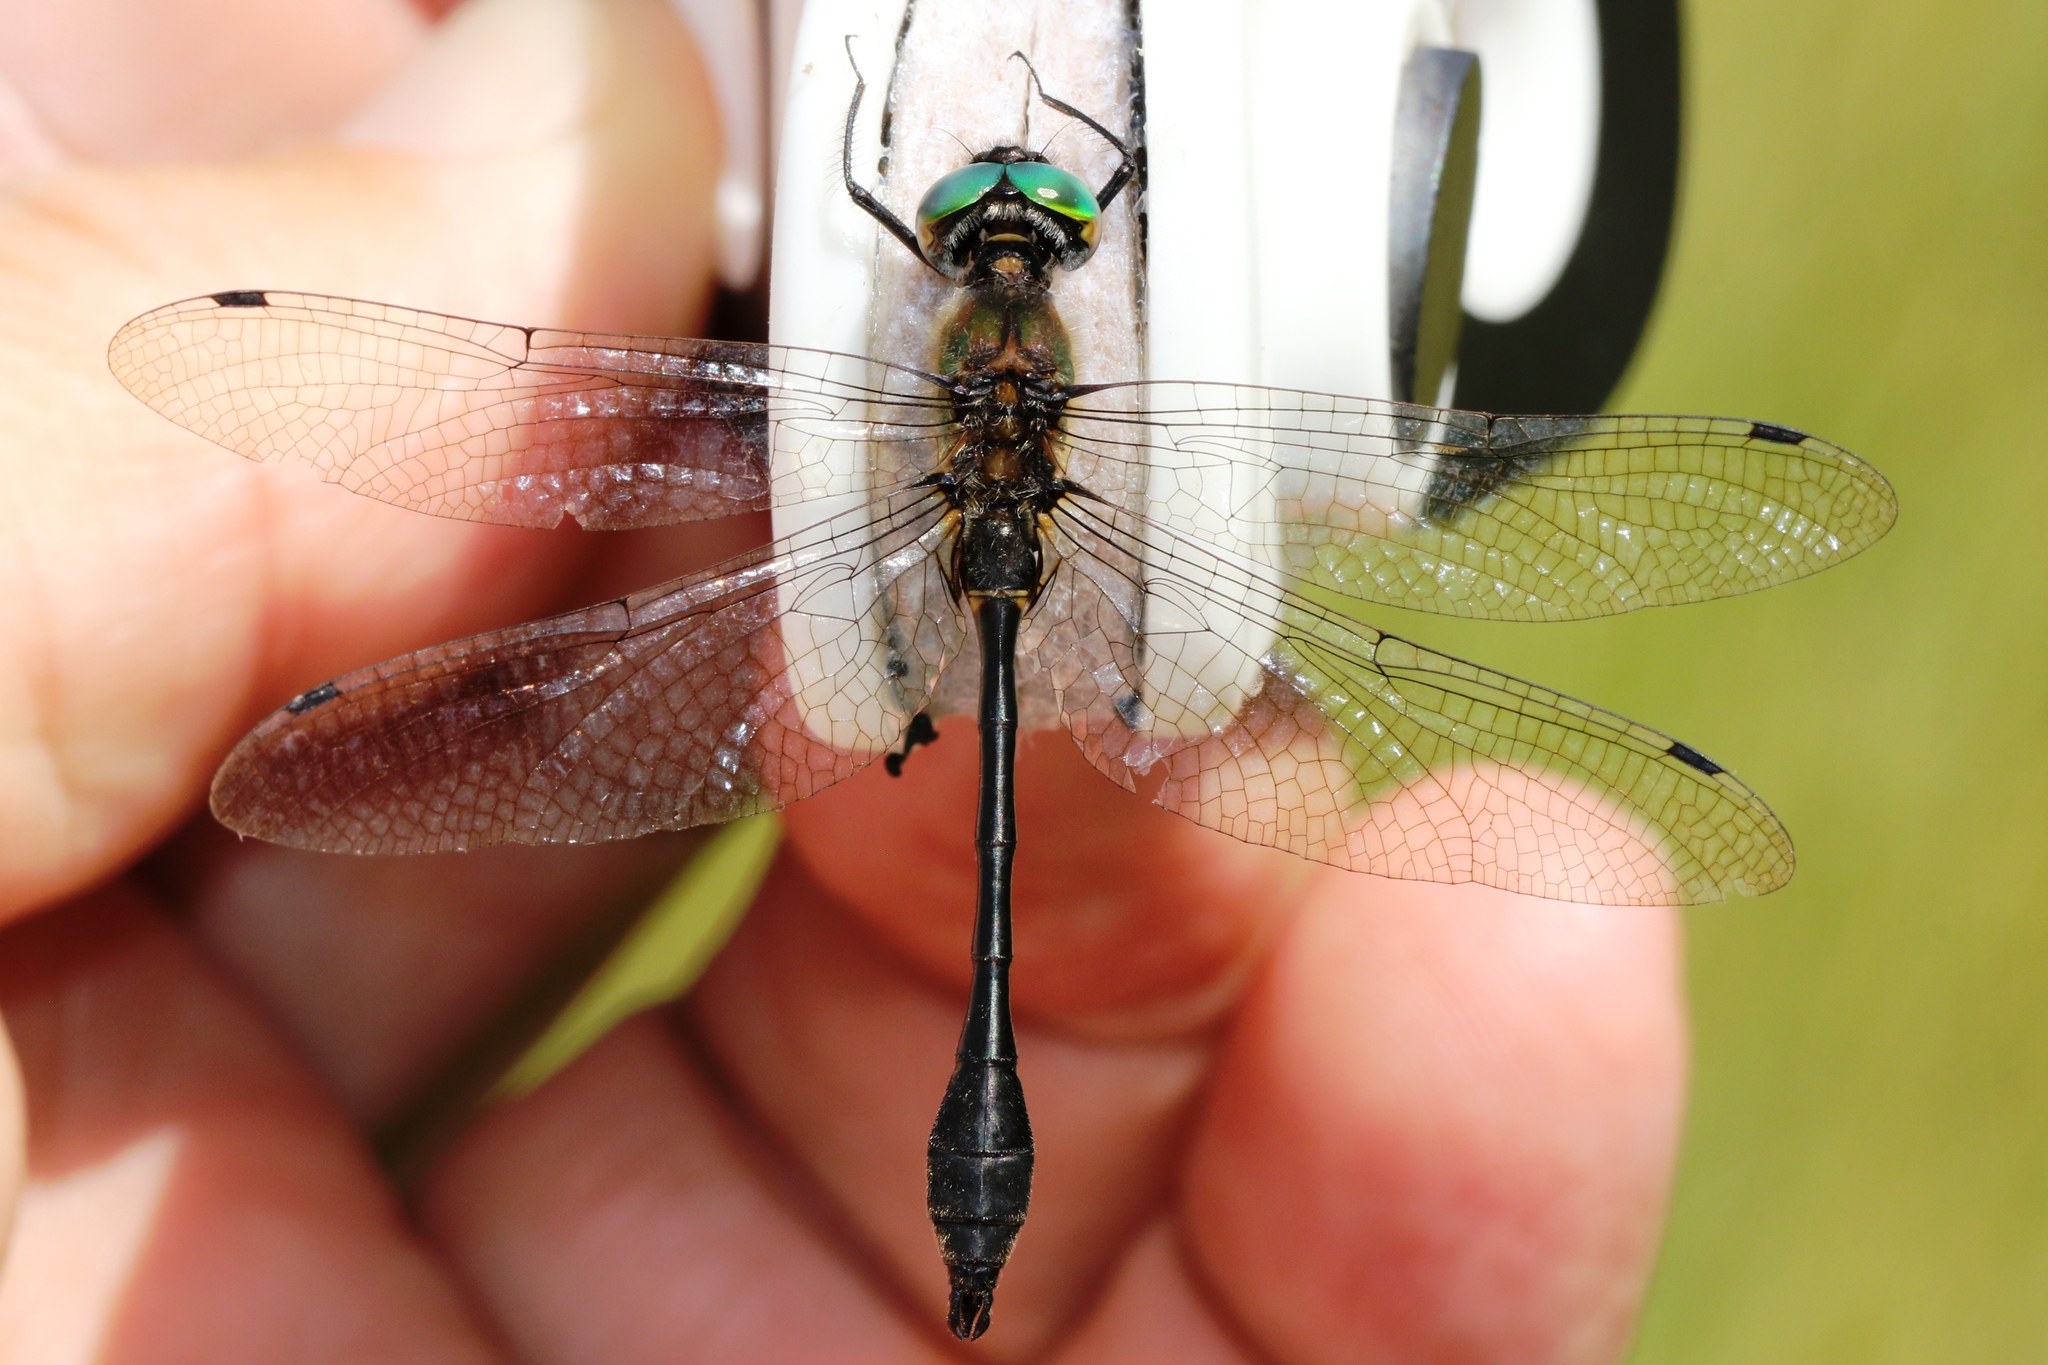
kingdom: Animalia
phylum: Arthropoda
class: Insecta
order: Odonata
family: Corduliidae
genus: Dorocordulia
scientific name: Dorocordulia libera
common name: Racket-tailed emerald
